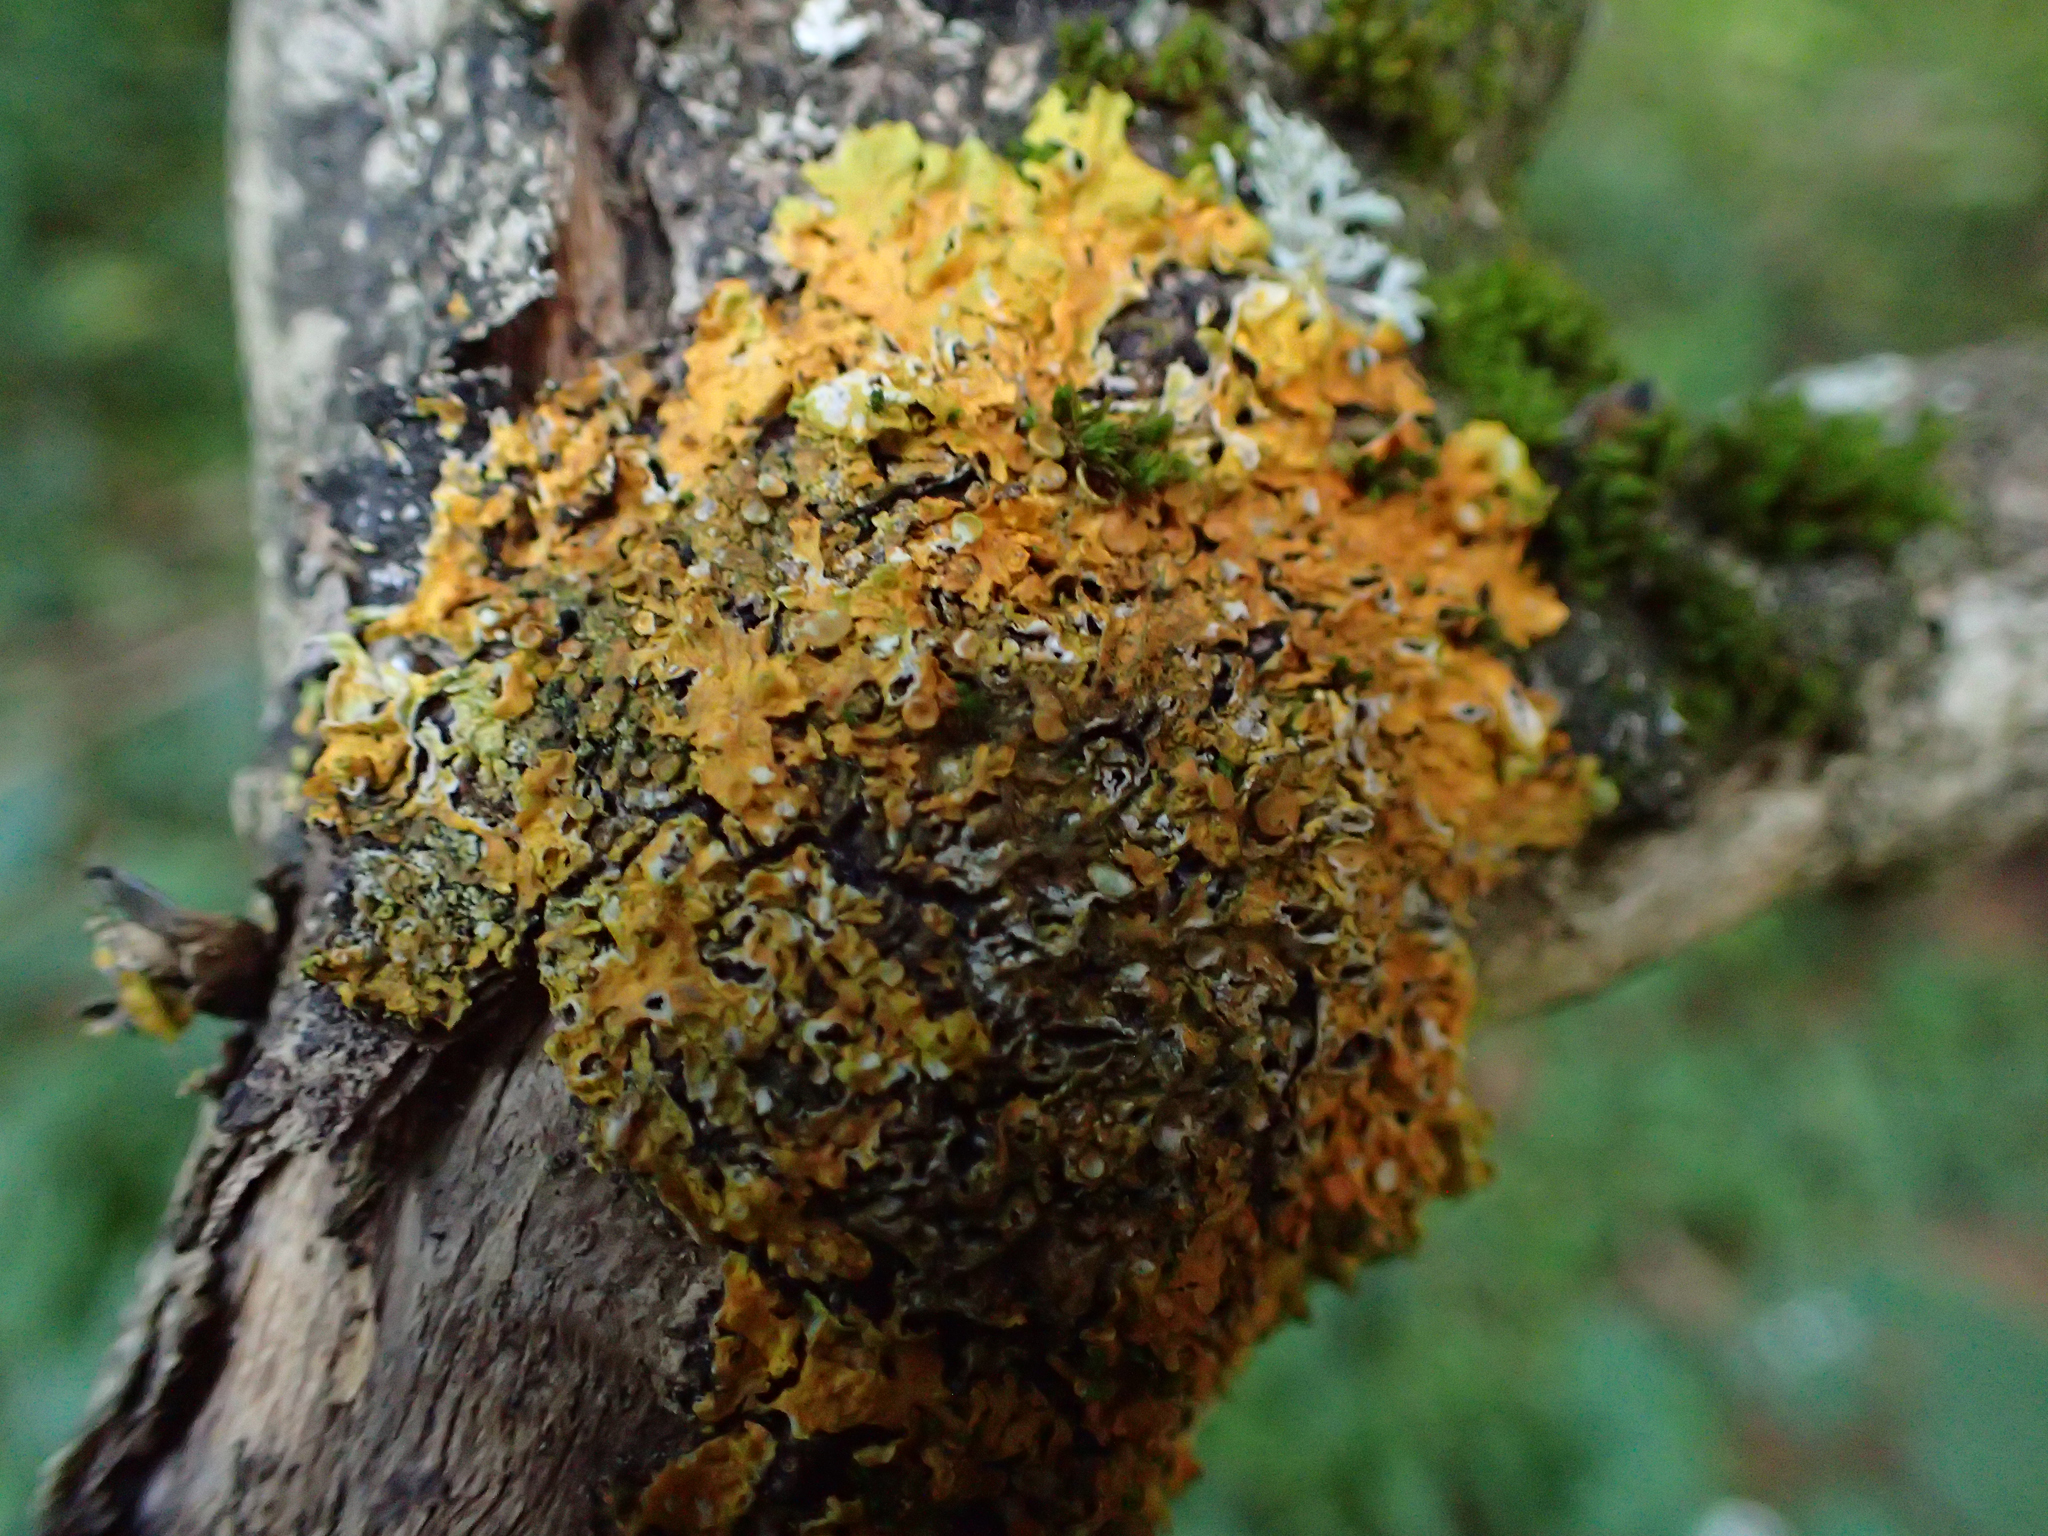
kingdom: Fungi
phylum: Ascomycota
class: Lecanoromycetes
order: Teloschistales
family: Teloschistaceae
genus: Xanthoria
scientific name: Xanthoria parietina
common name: Common orange lichen
